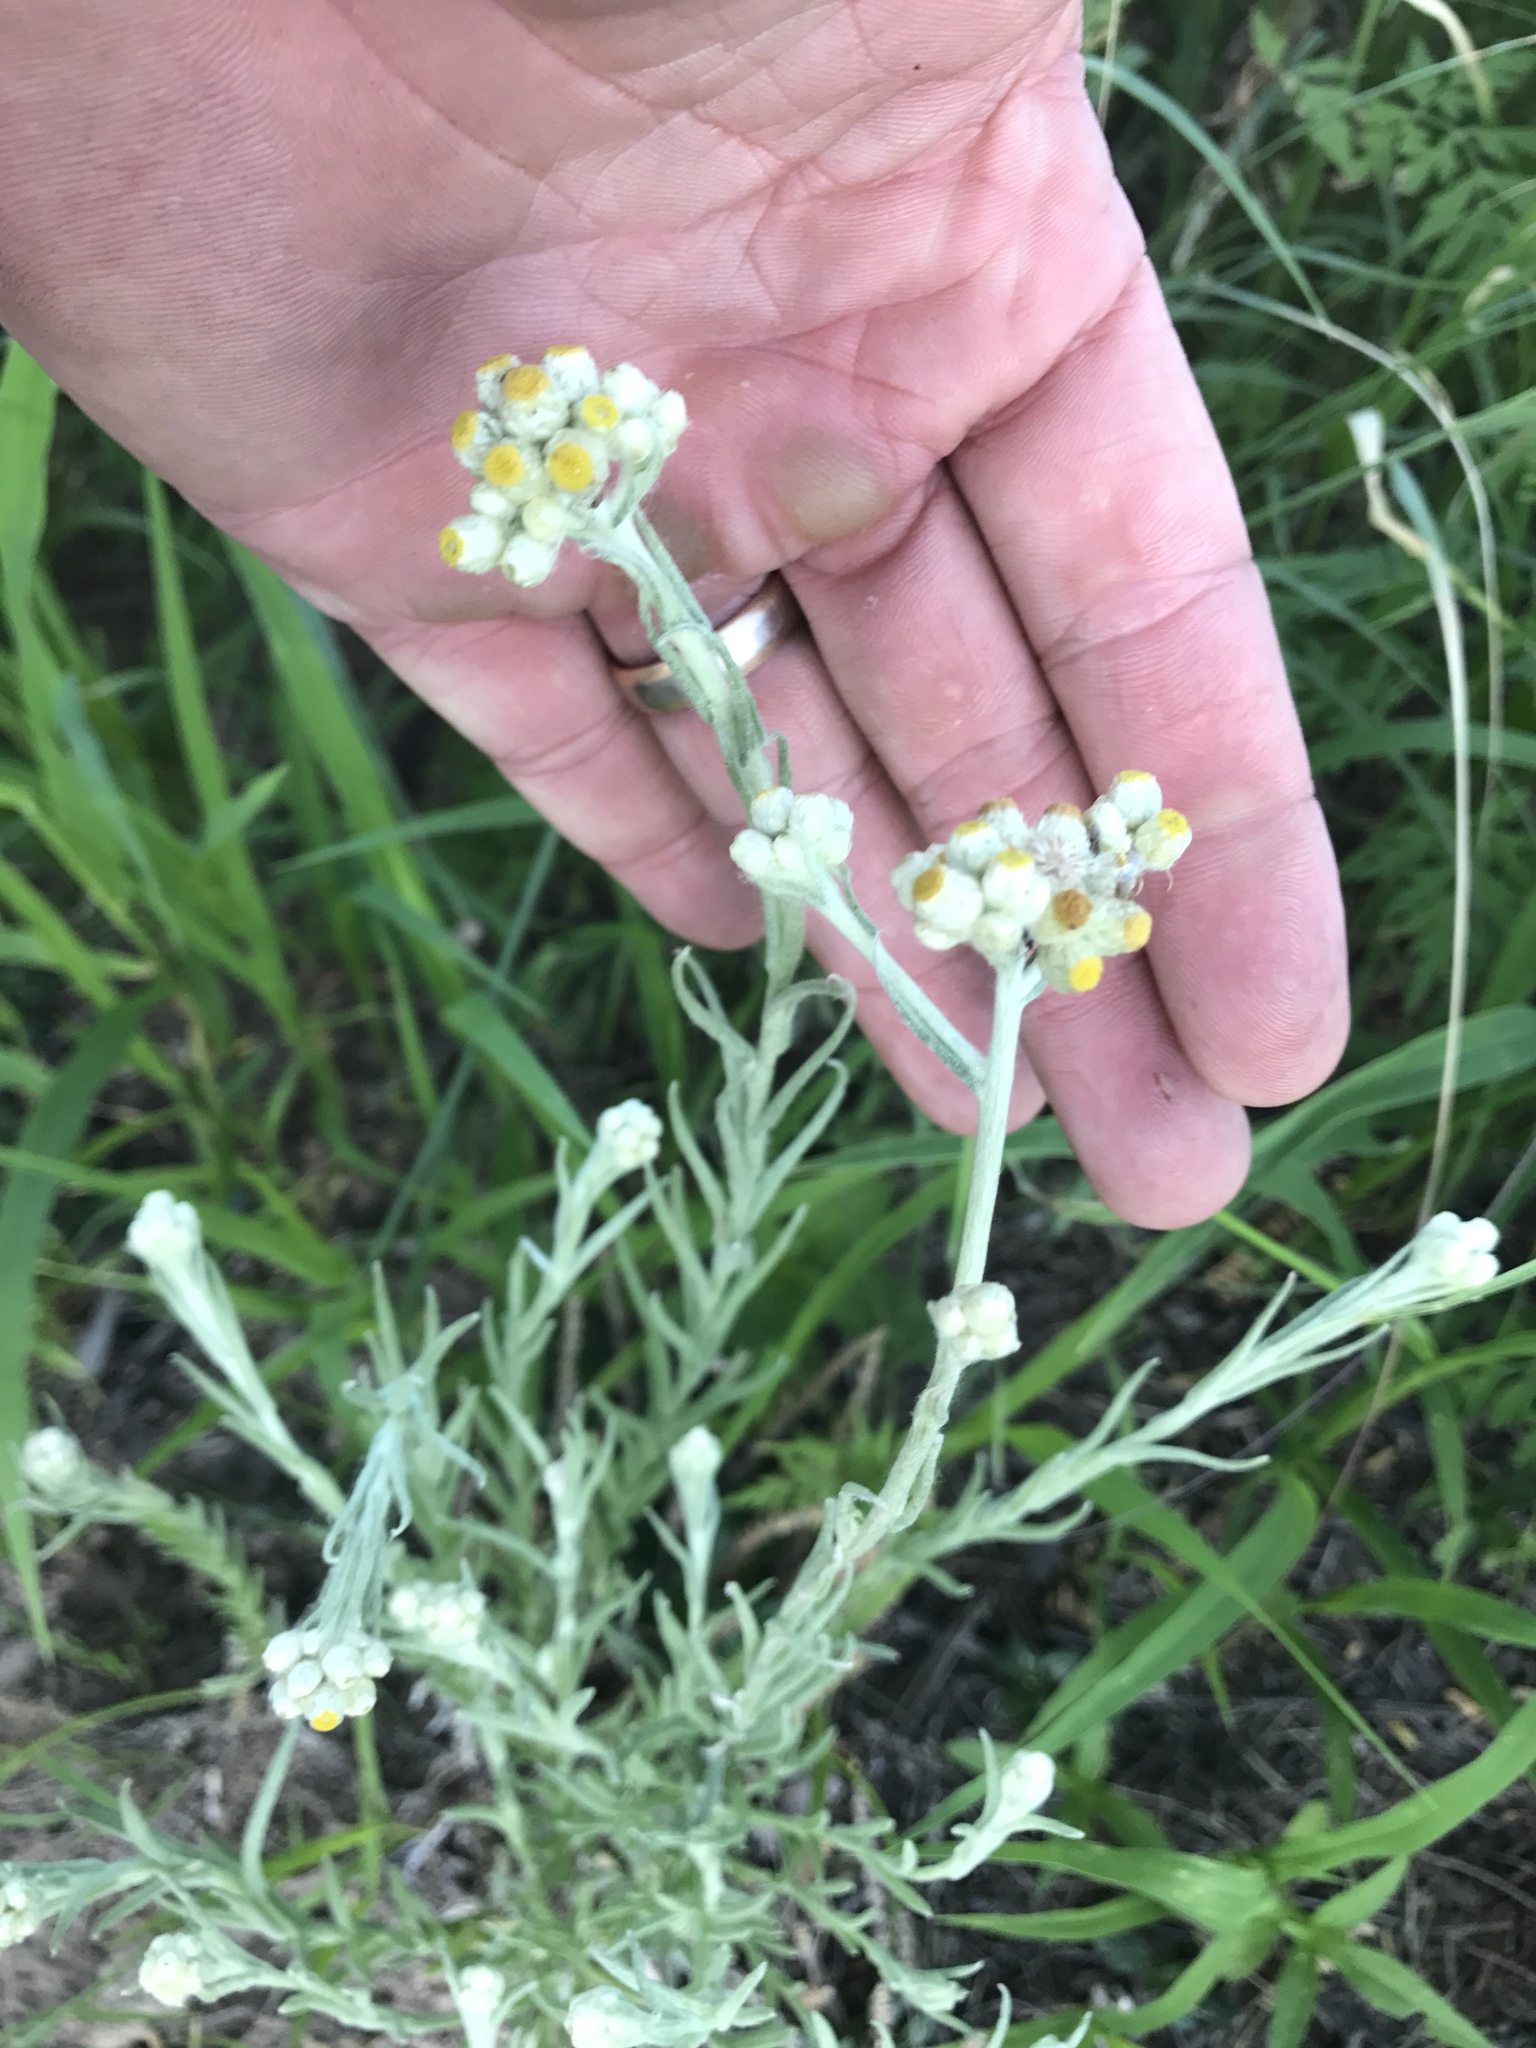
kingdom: Plantae
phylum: Tracheophyta
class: Magnoliopsida
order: Asterales
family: Asteraceae
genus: Pseudognaphalium
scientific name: Pseudognaphalium stramineum
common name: Cotton-batting-plant
